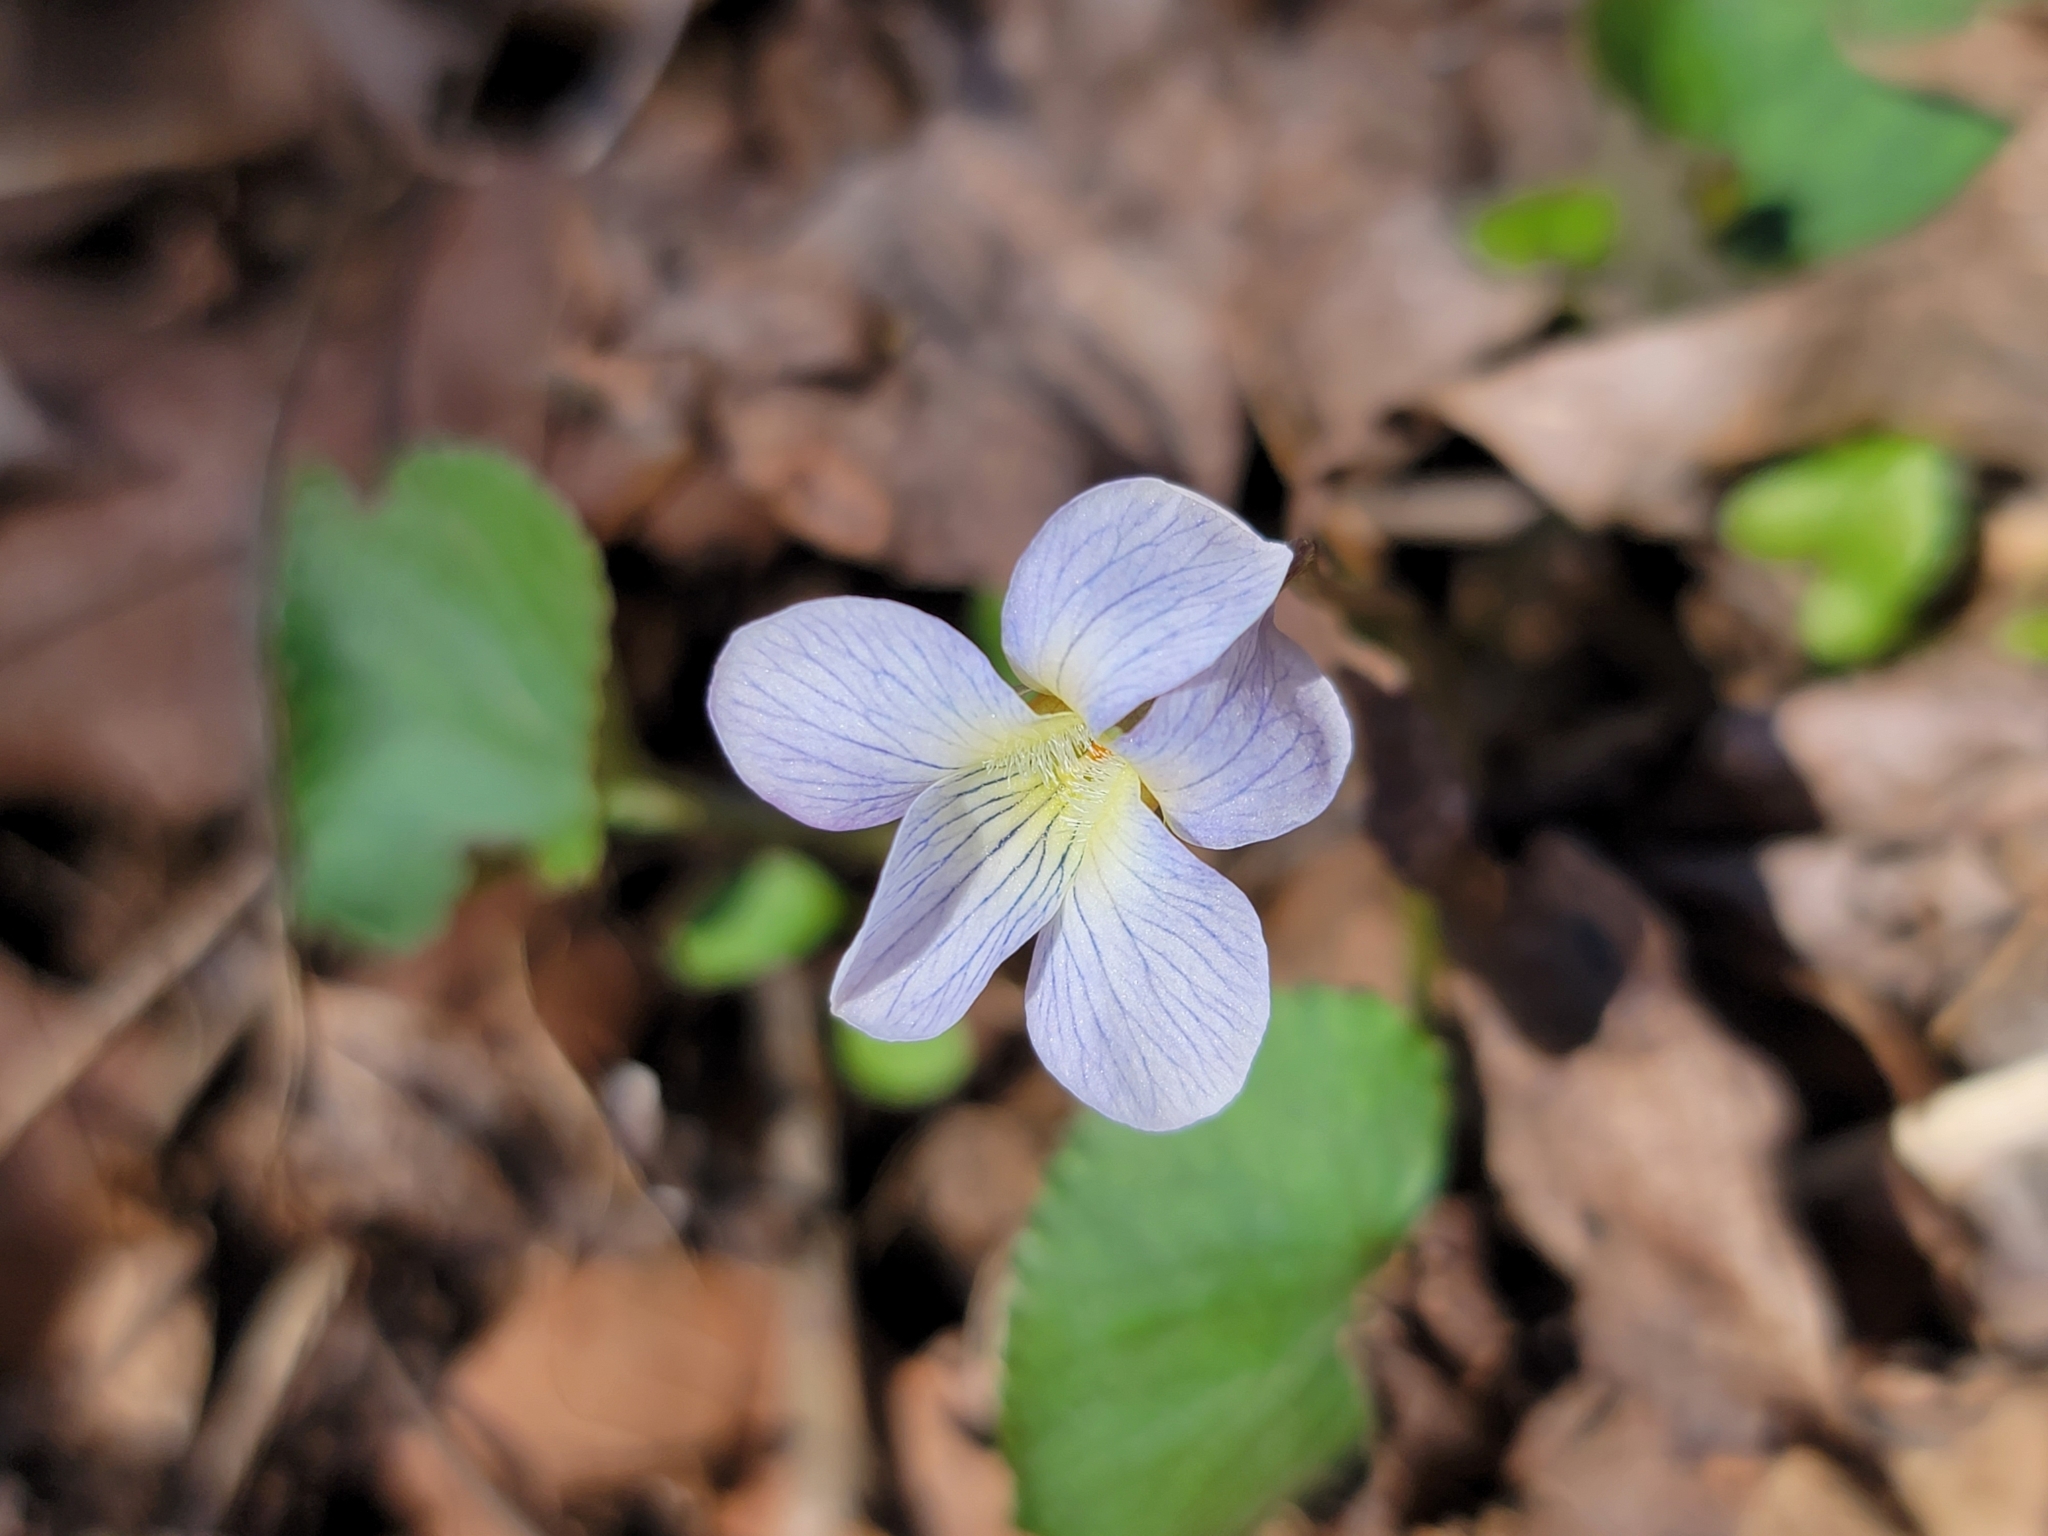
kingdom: Plantae
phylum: Tracheophyta
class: Magnoliopsida
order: Malpighiales
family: Violaceae
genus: Viola
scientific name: Viola sororia
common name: Dooryard violet
